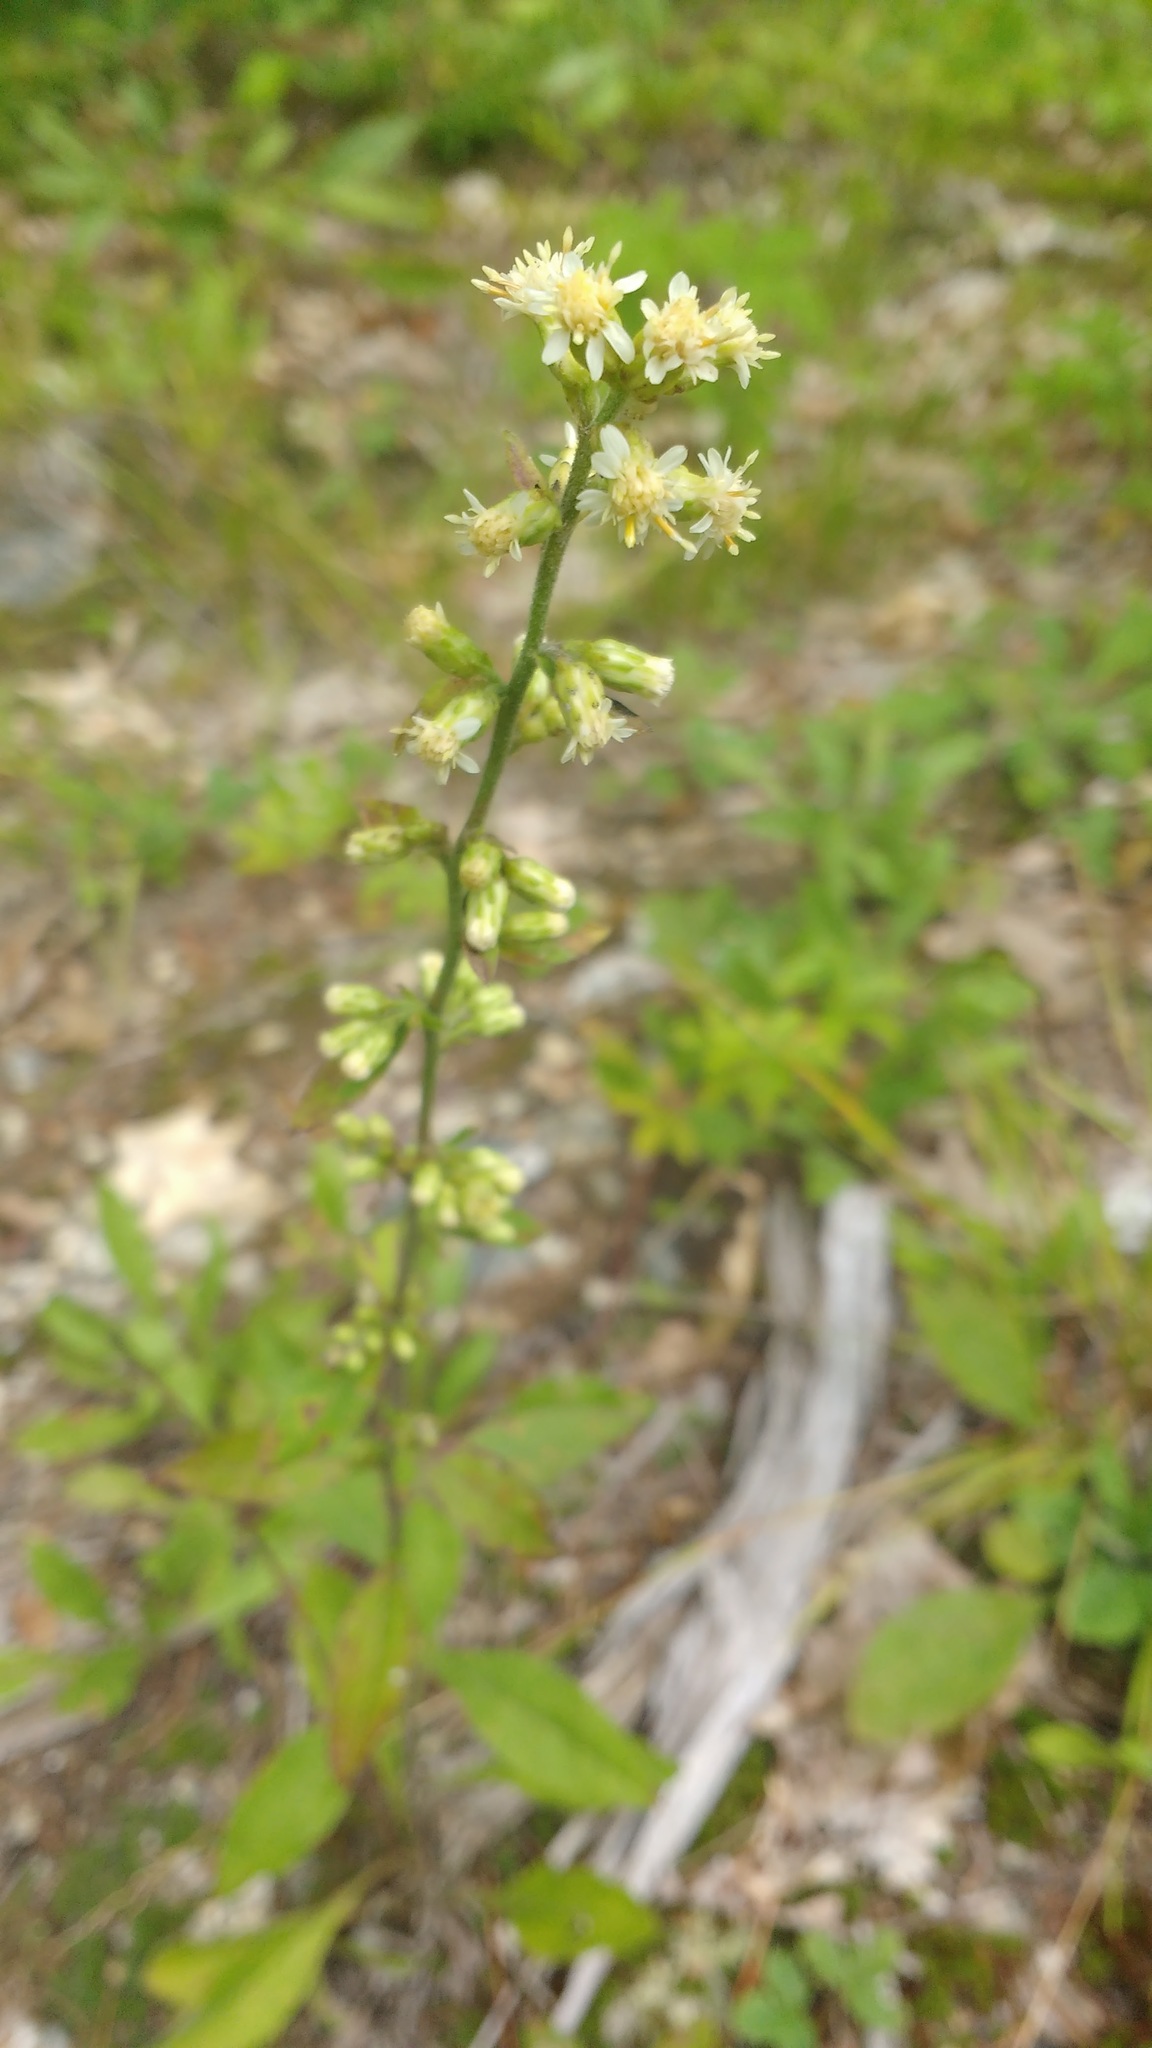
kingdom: Plantae
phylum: Tracheophyta
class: Magnoliopsida
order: Asterales
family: Asteraceae
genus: Solidago
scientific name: Solidago bicolor
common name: Silverrod
